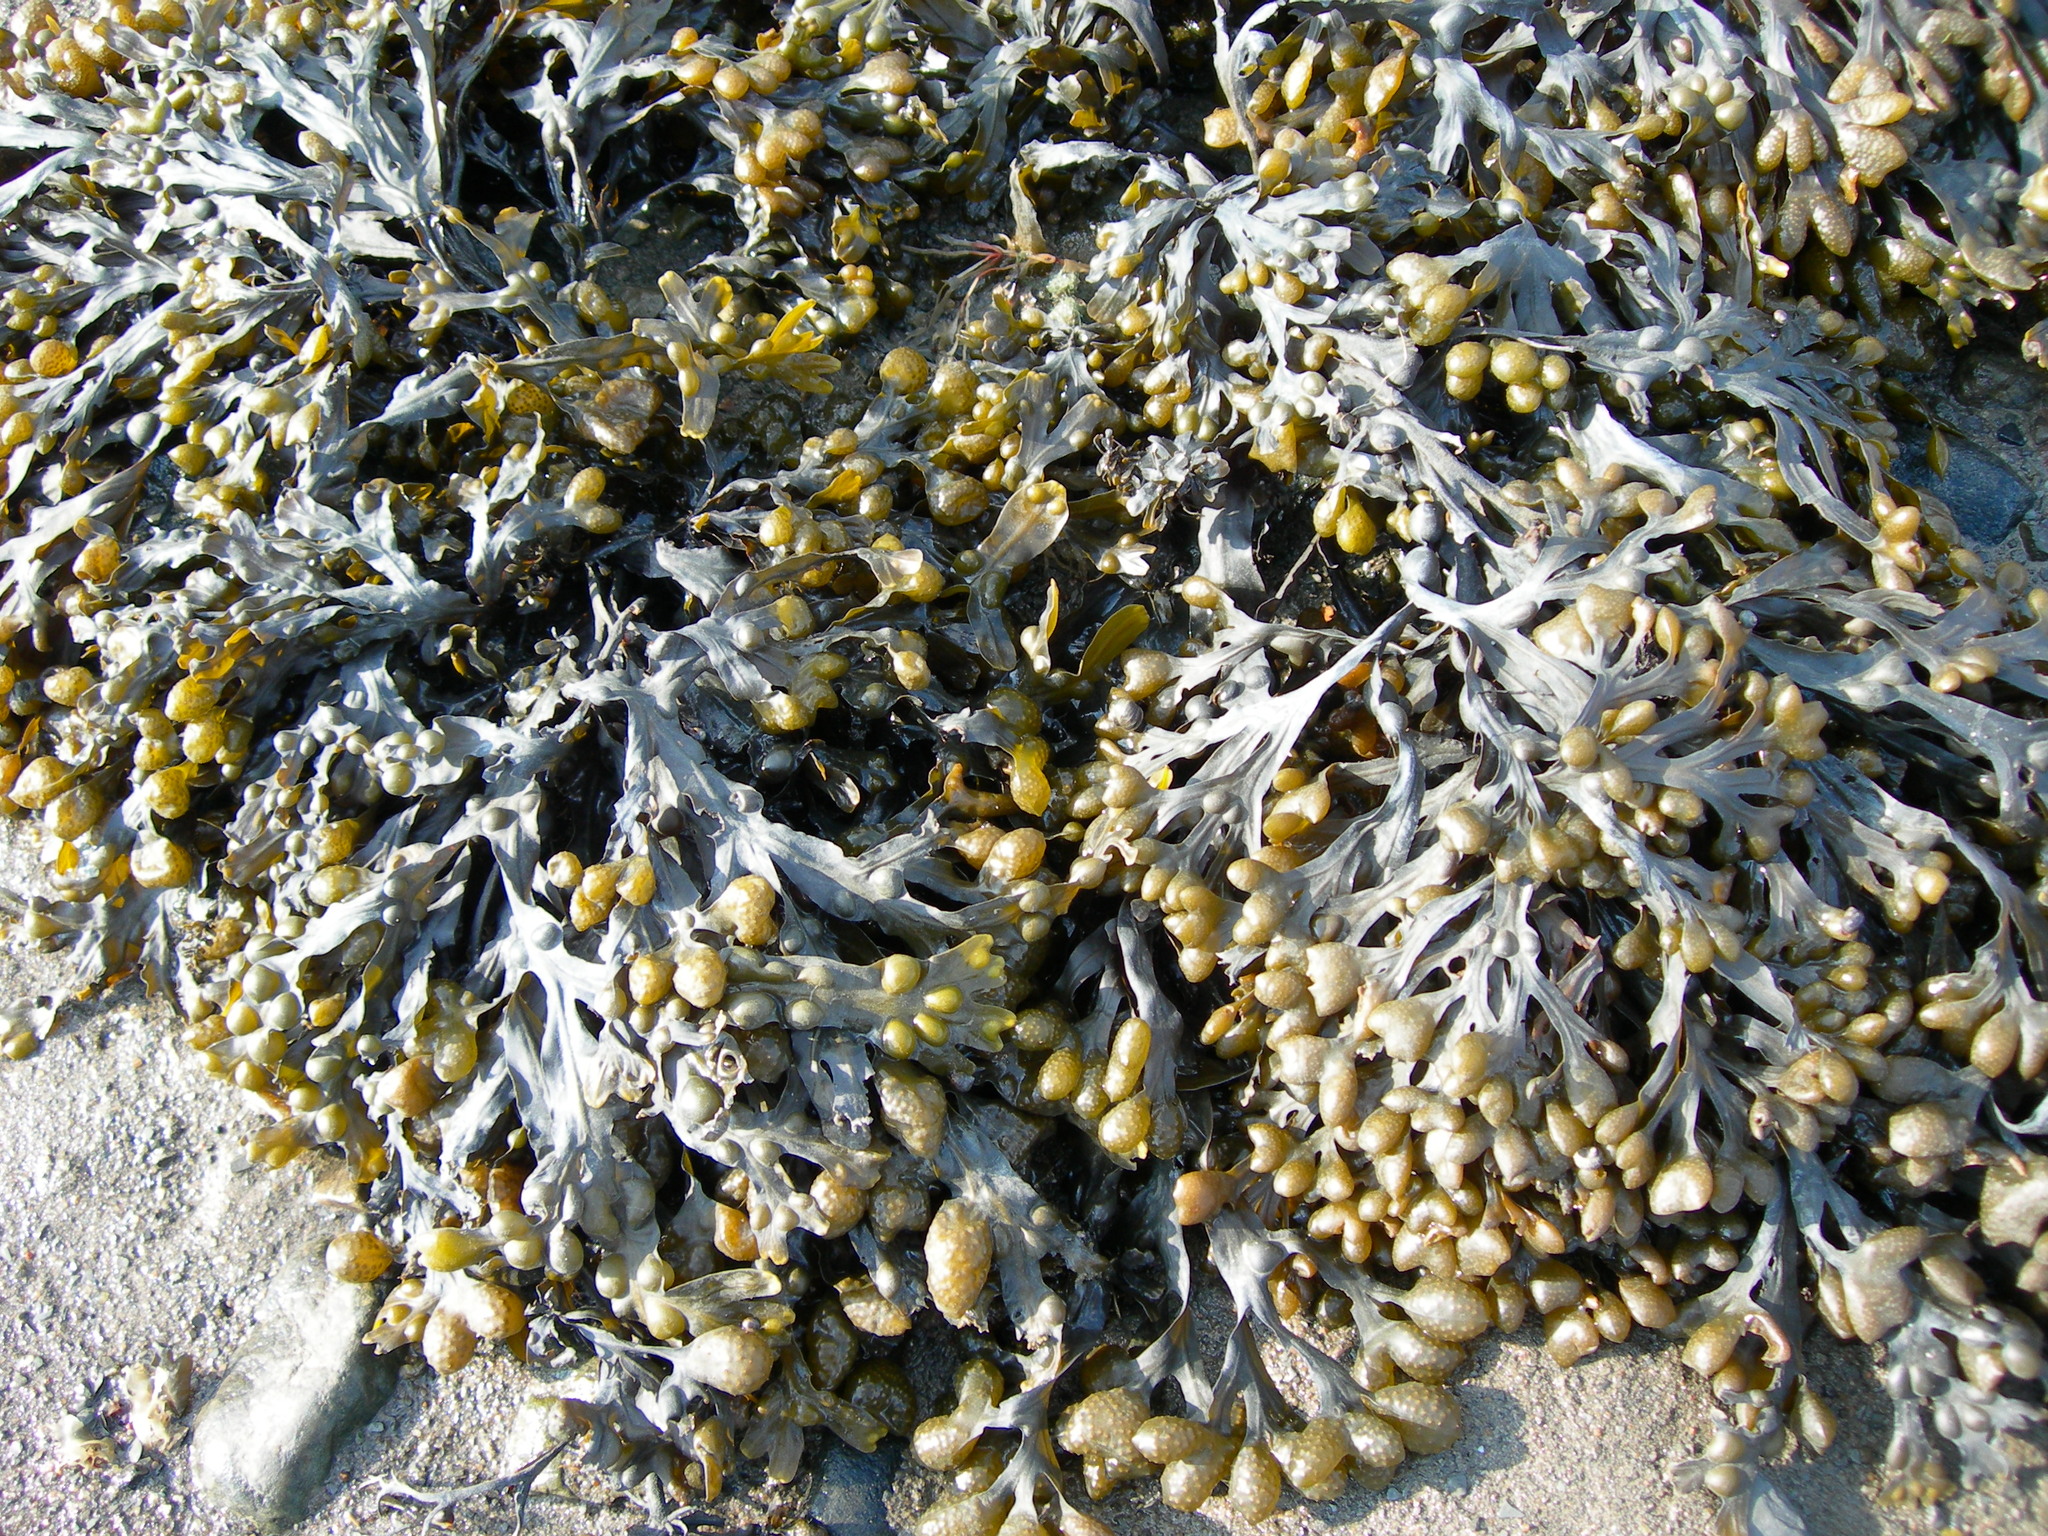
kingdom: Chromista
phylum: Ochrophyta
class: Phaeophyceae
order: Fucales
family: Fucaceae
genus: Fucus
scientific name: Fucus vesiculosus
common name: Bladder wrack
